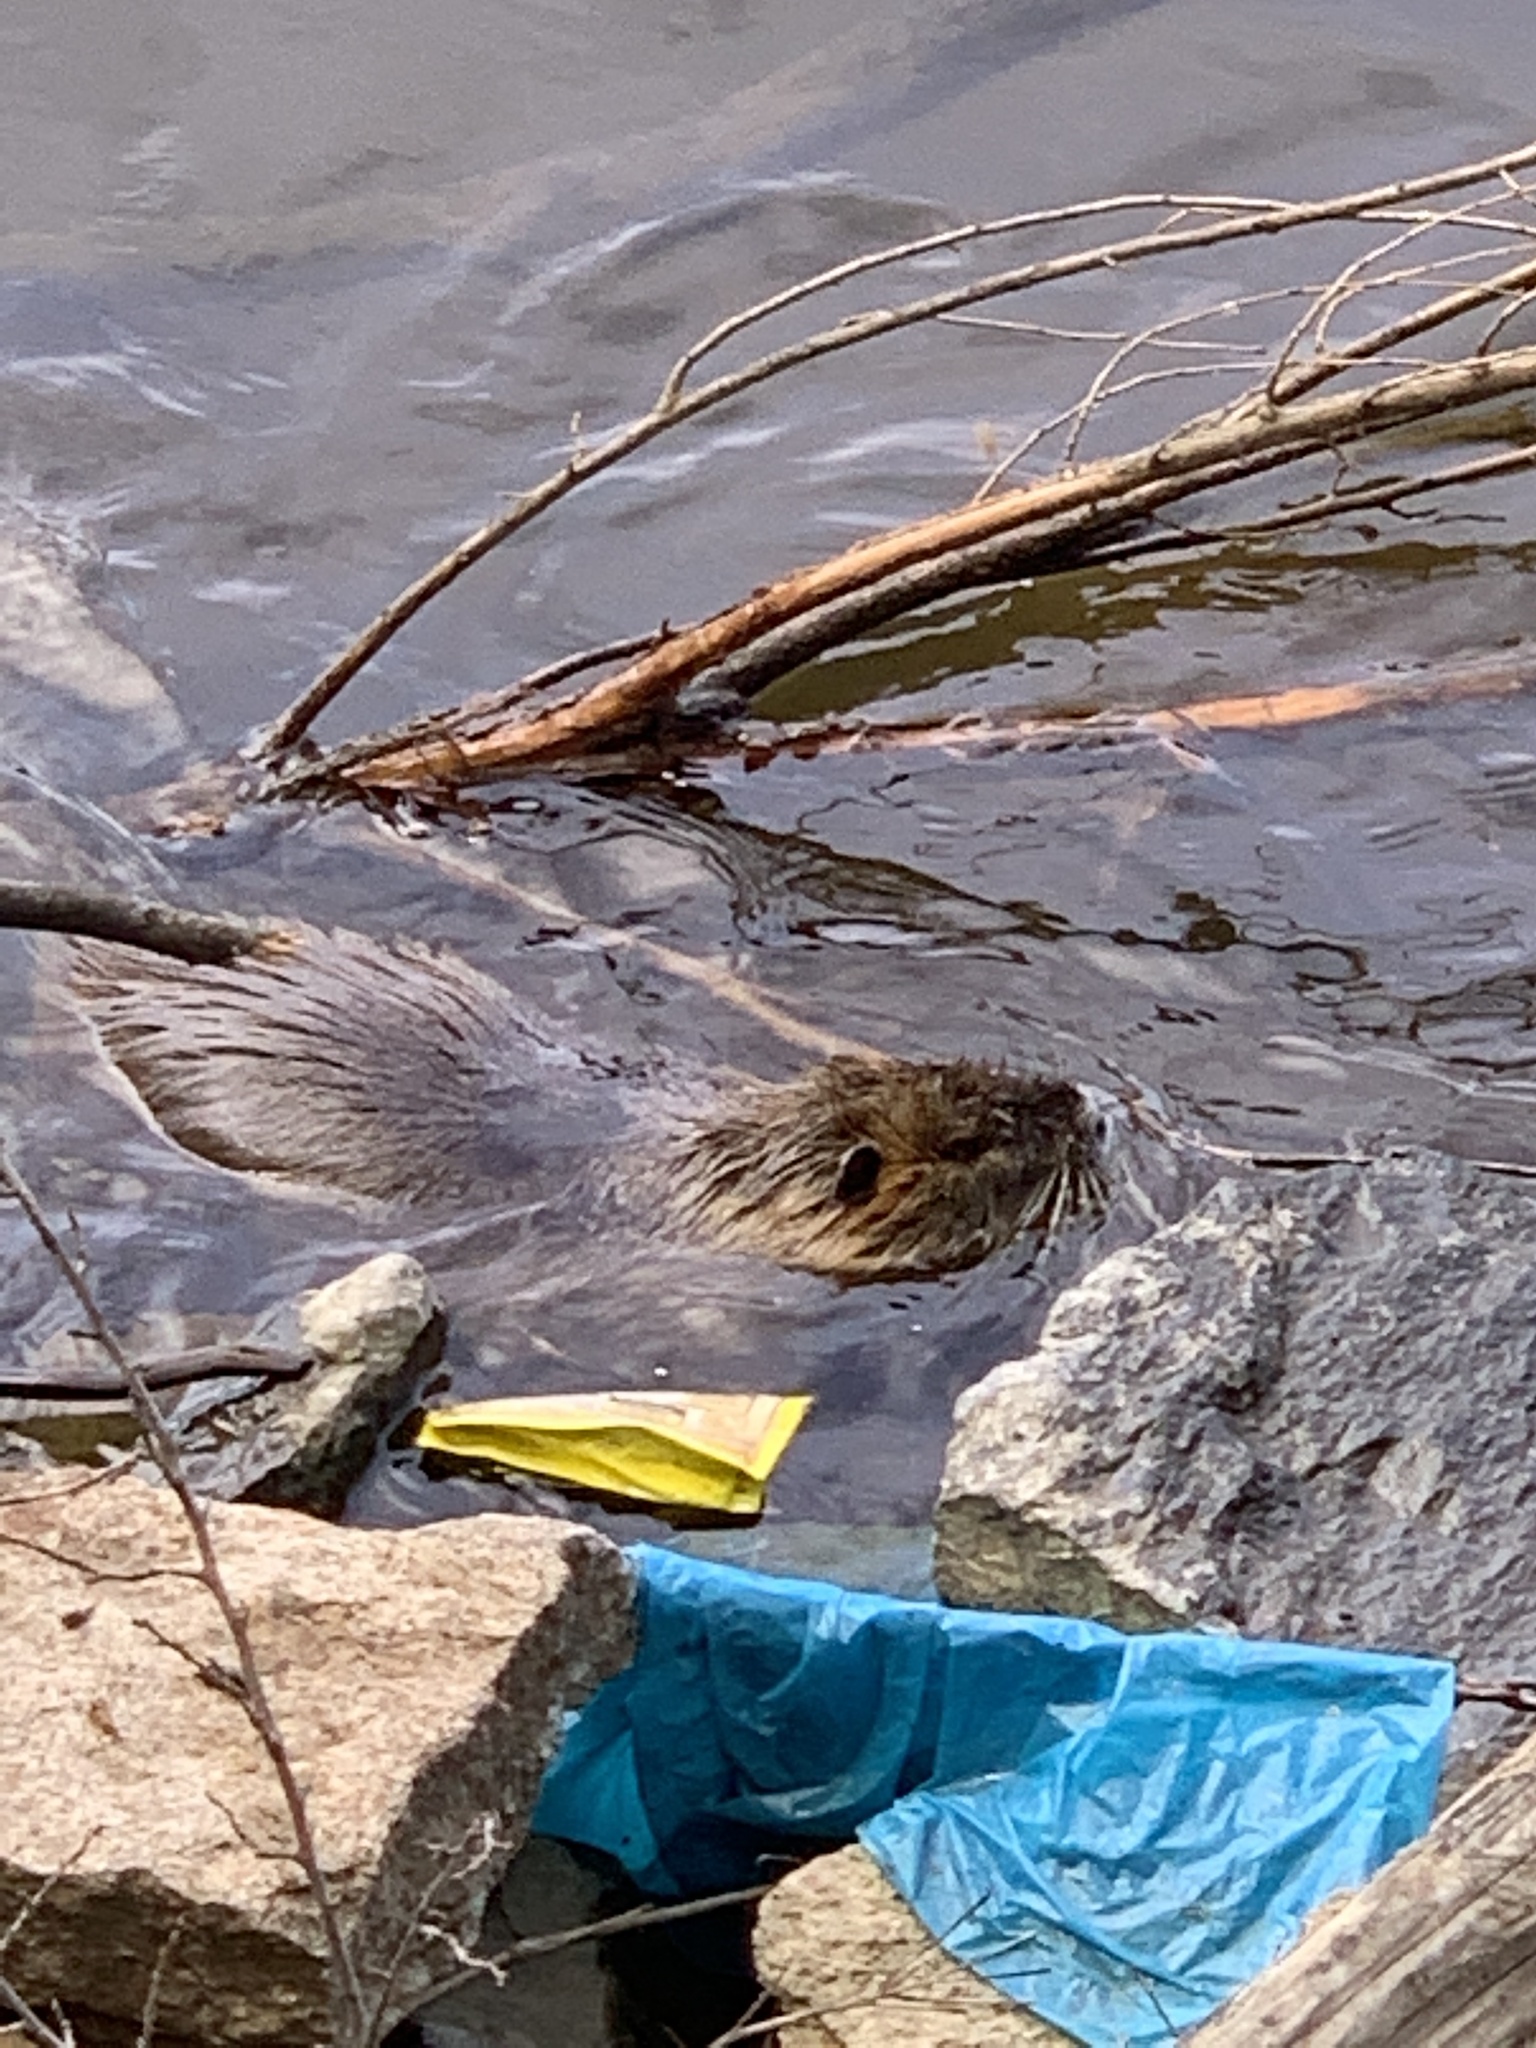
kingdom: Animalia
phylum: Chordata
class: Mammalia
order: Rodentia
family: Myocastoridae
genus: Myocastor
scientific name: Myocastor coypus
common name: Coypu
